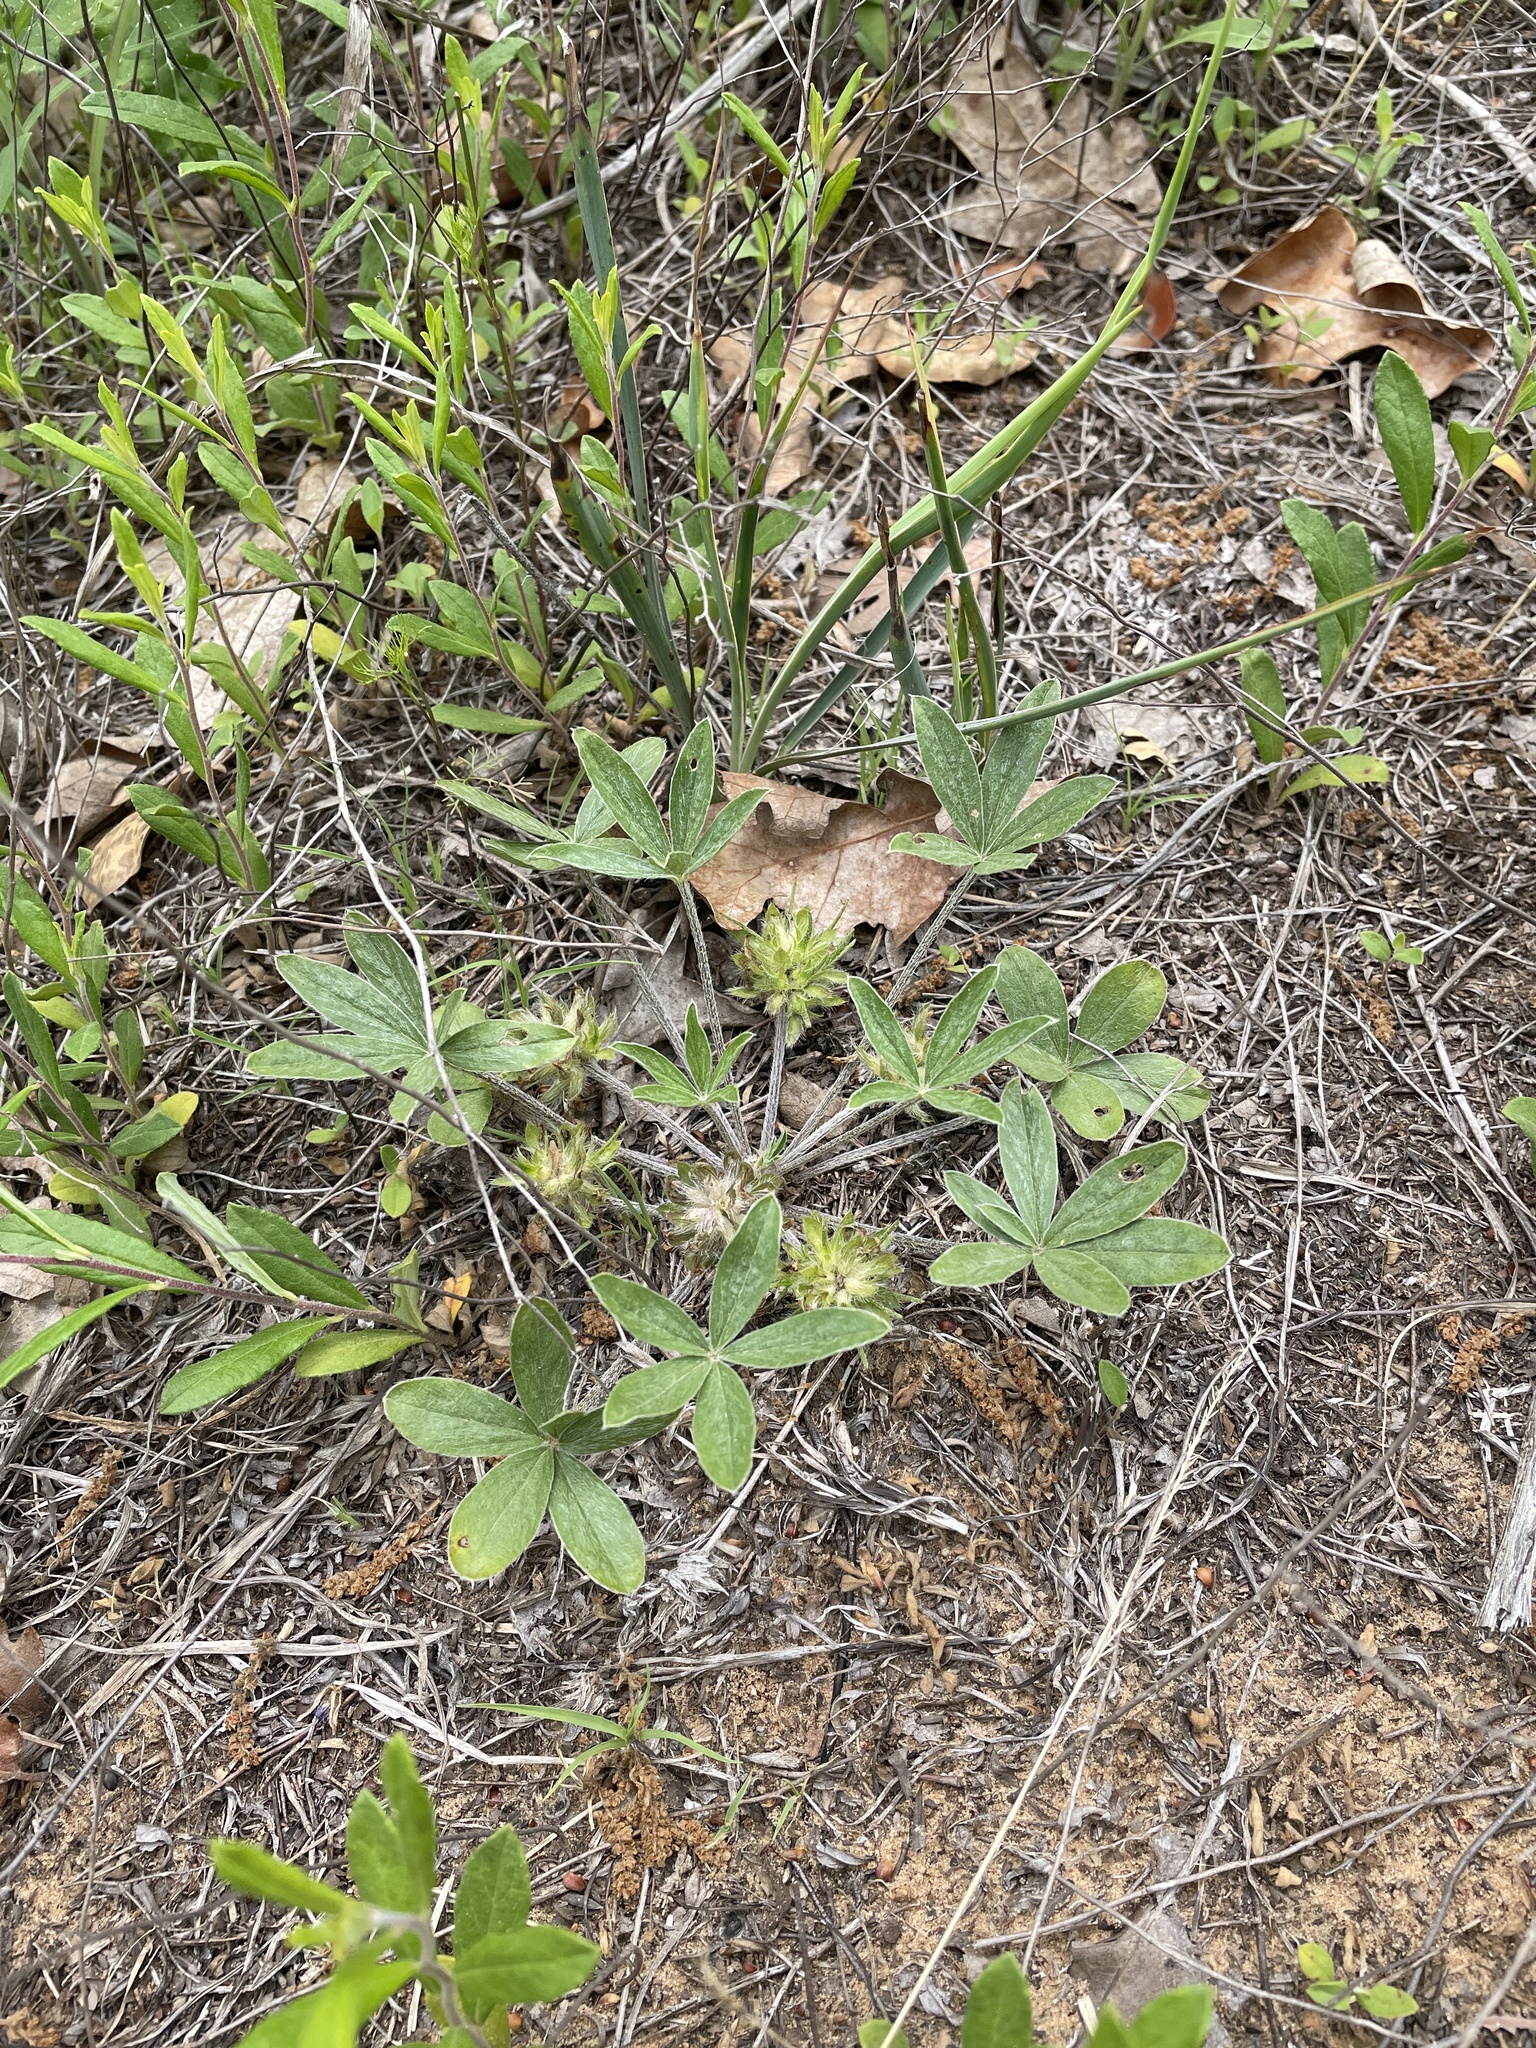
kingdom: Plantae
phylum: Tracheophyta
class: Magnoliopsida
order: Fabales
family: Fabaceae
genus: Pediomelum
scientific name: Pediomelum hypogaeum
